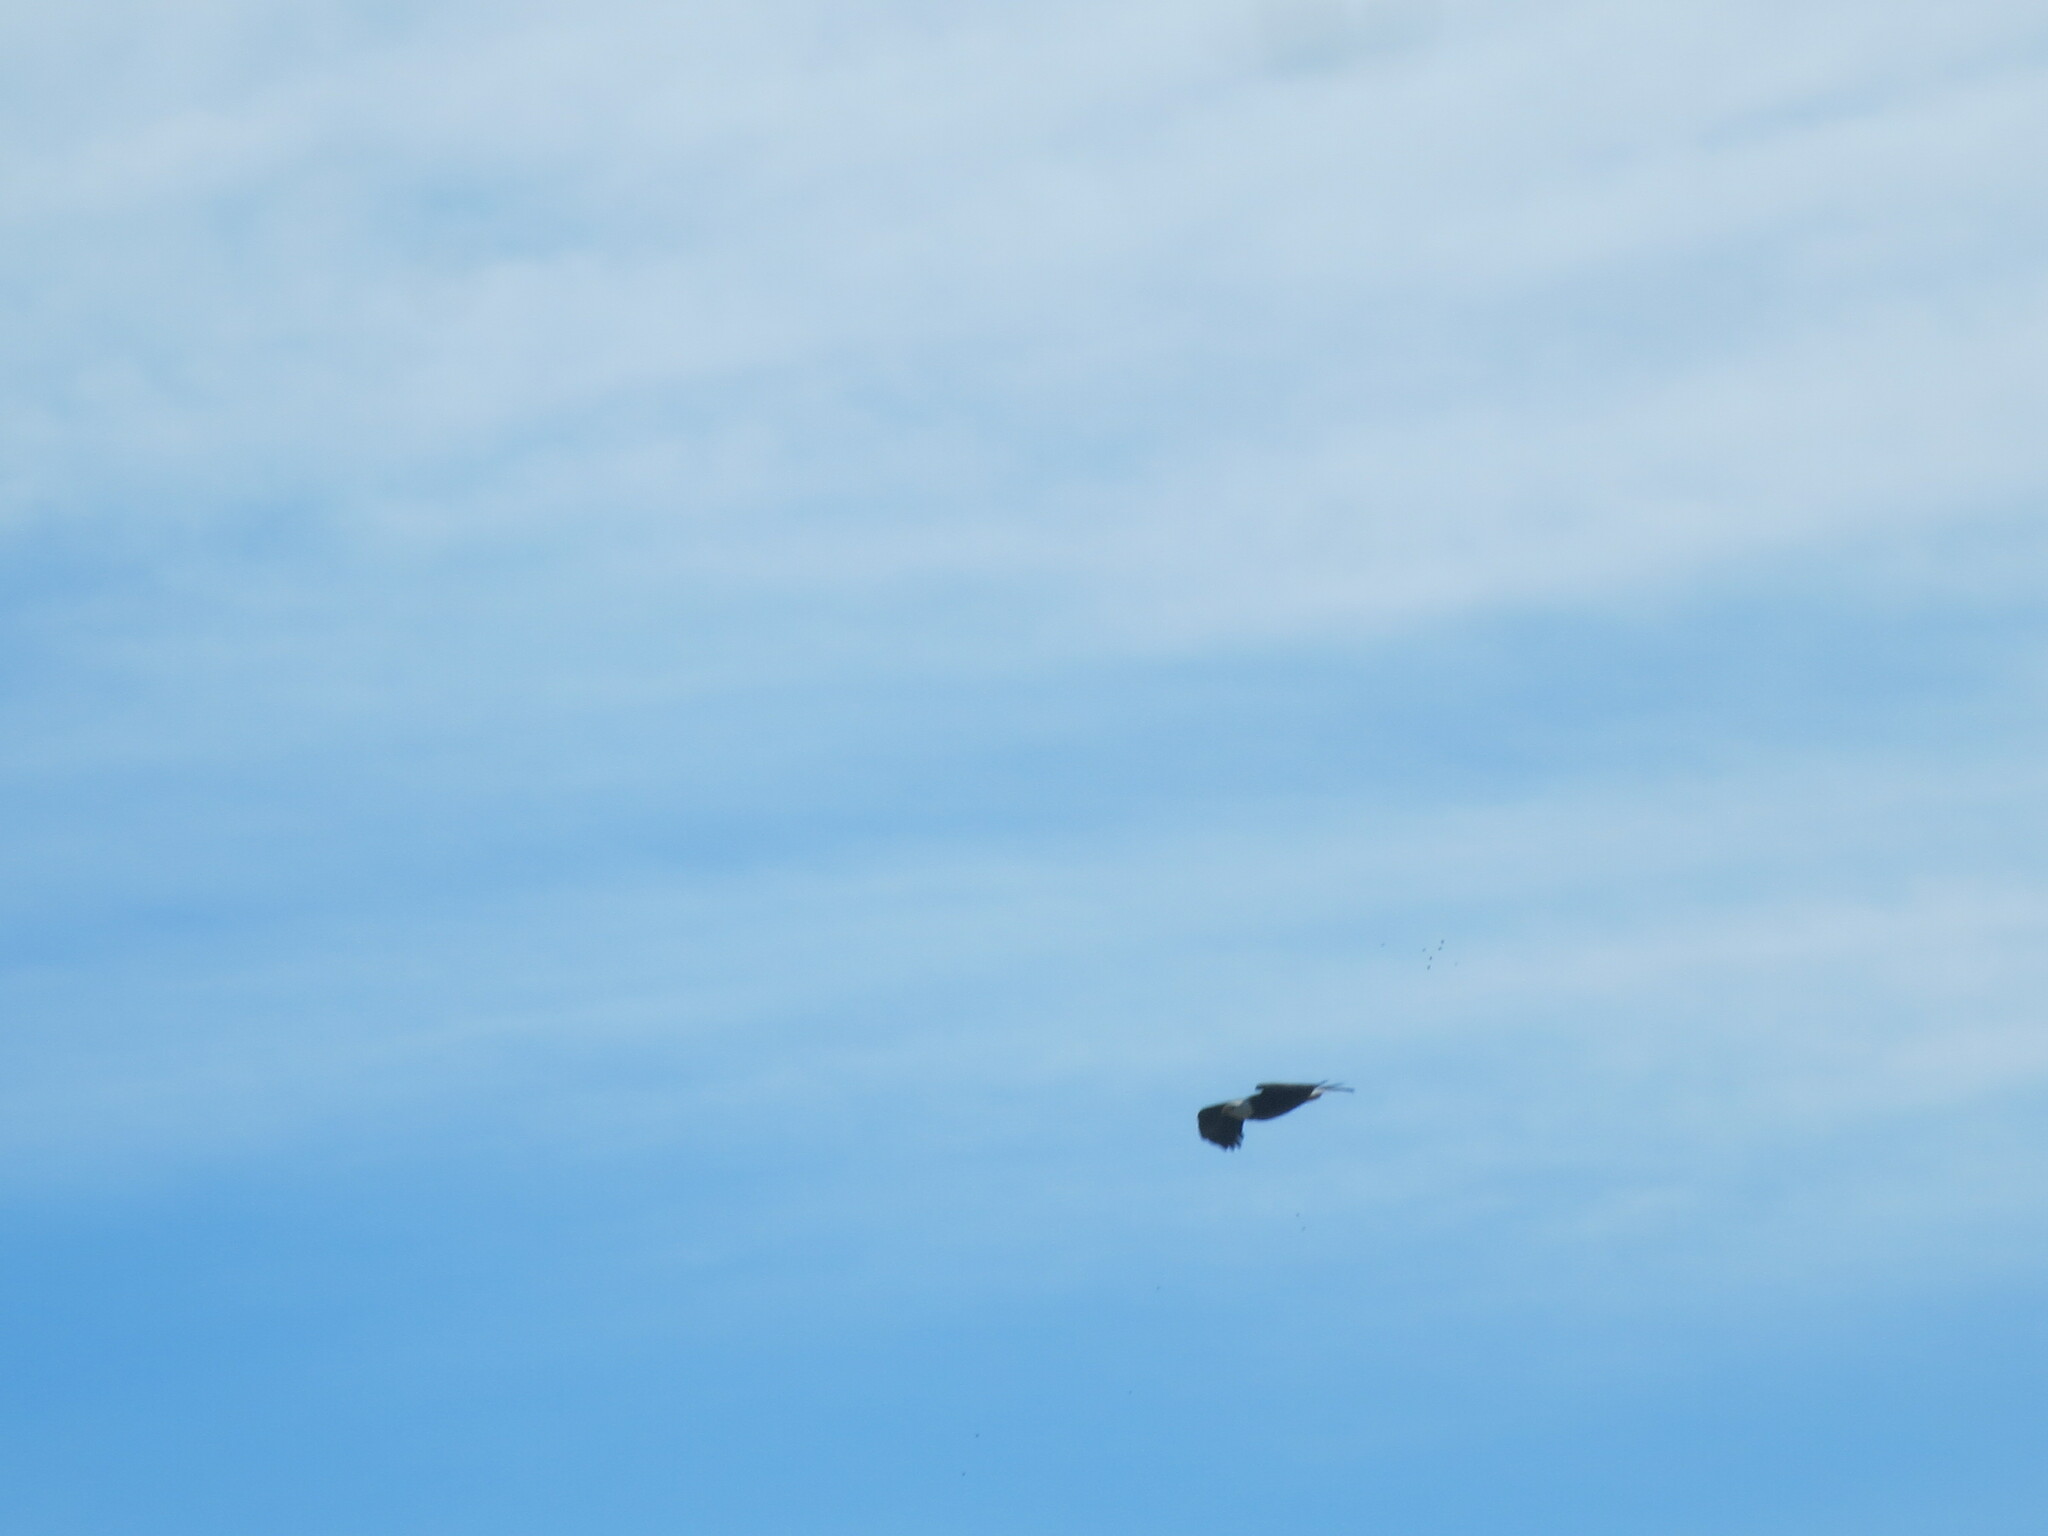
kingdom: Animalia
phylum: Chordata
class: Aves
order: Accipitriformes
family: Accipitridae
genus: Haliaeetus
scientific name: Haliaeetus leucocephalus
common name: Bald eagle
